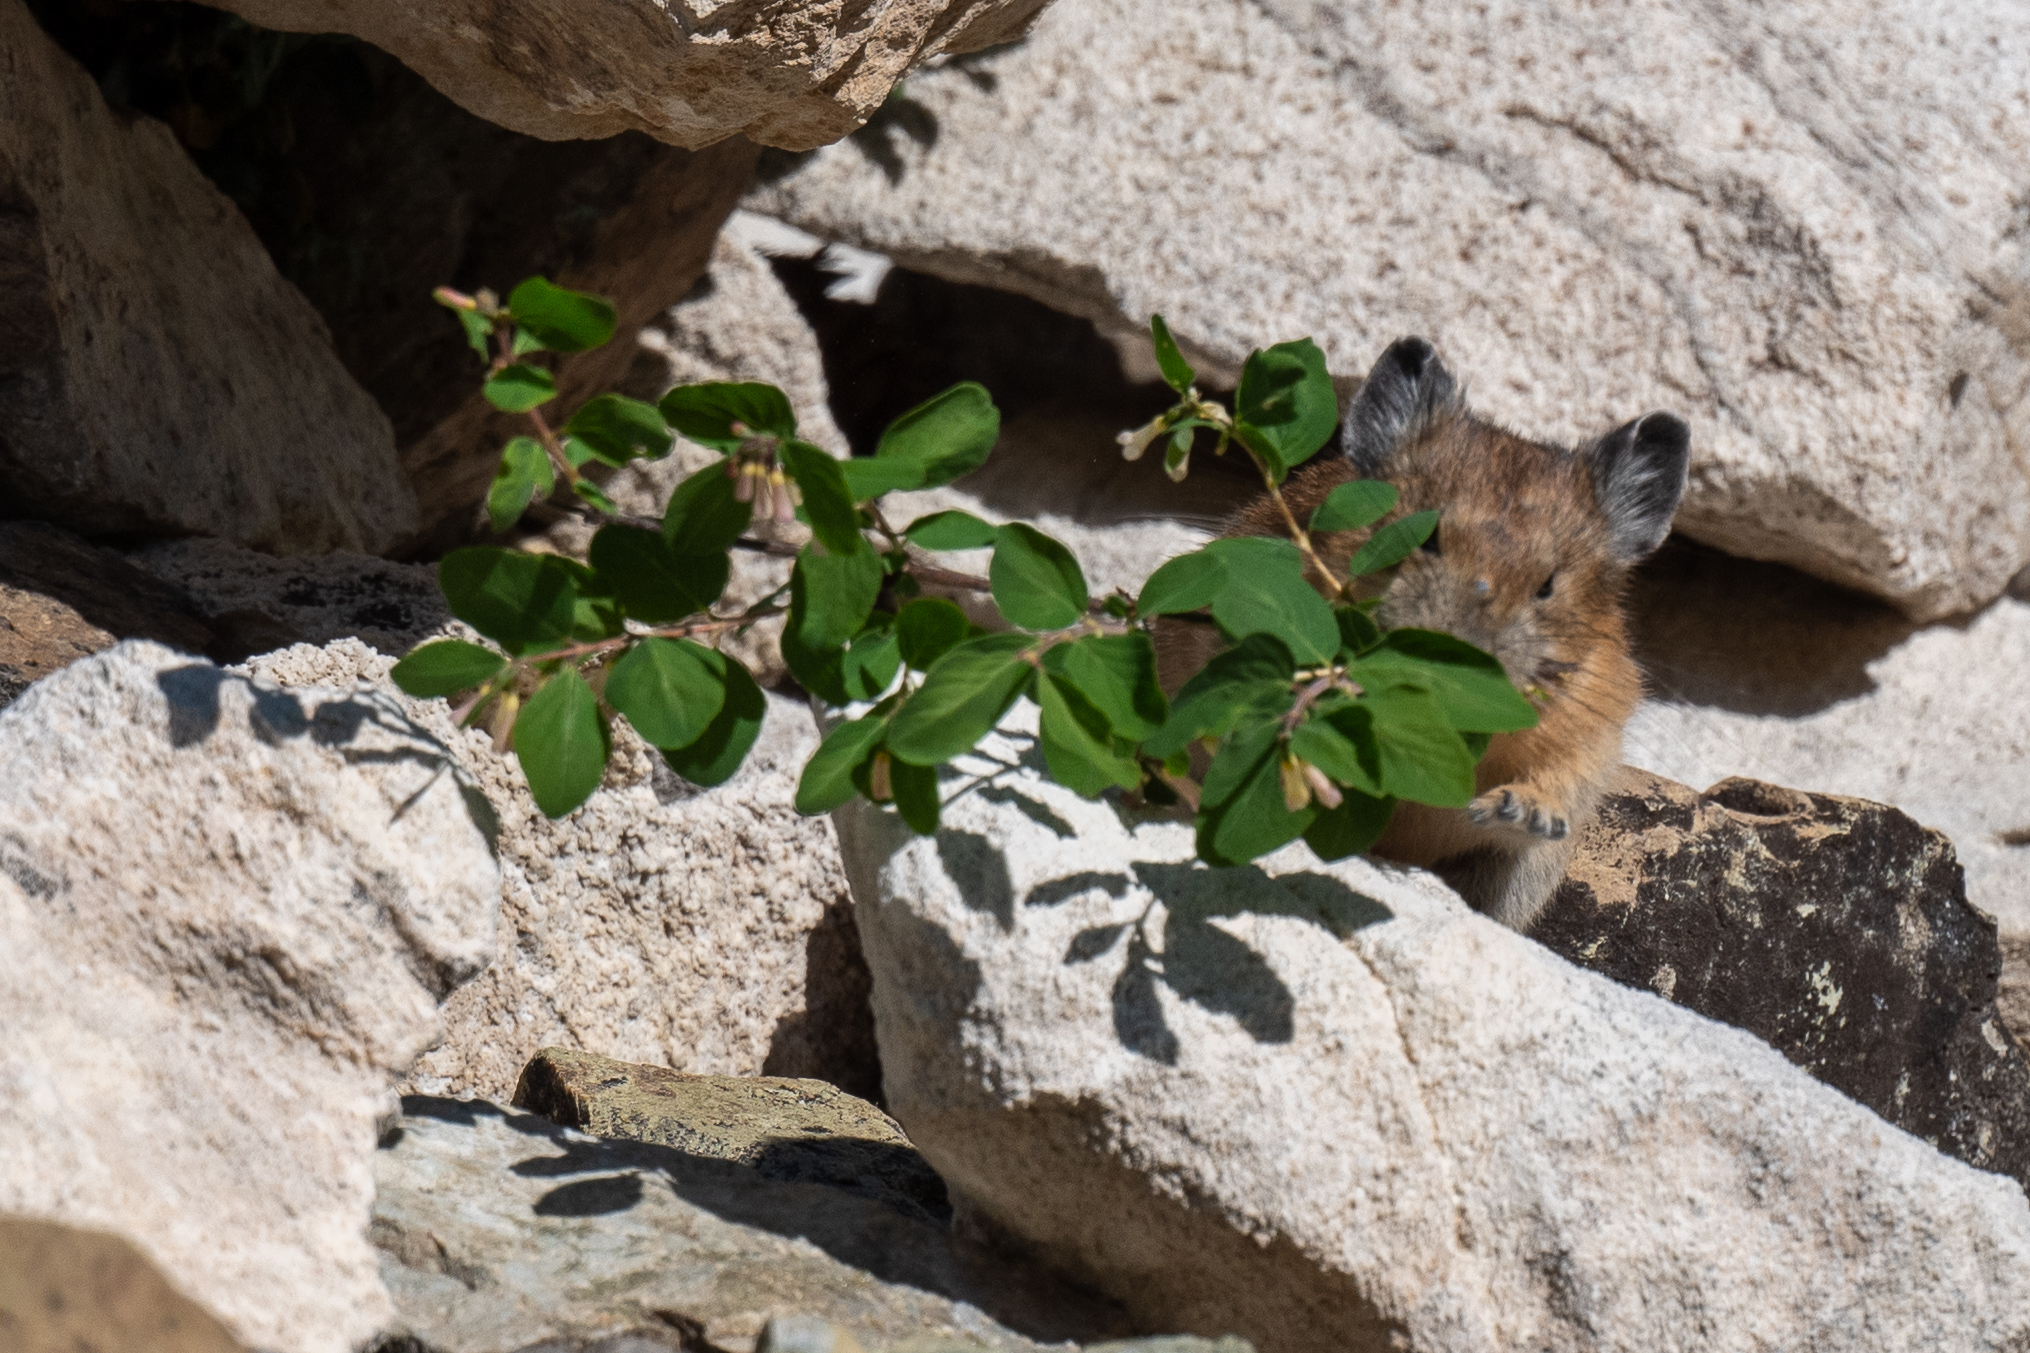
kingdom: Animalia
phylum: Chordata
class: Mammalia
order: Lagomorpha
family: Ochotonidae
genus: Ochotona
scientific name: Ochotona princeps
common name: American pika
